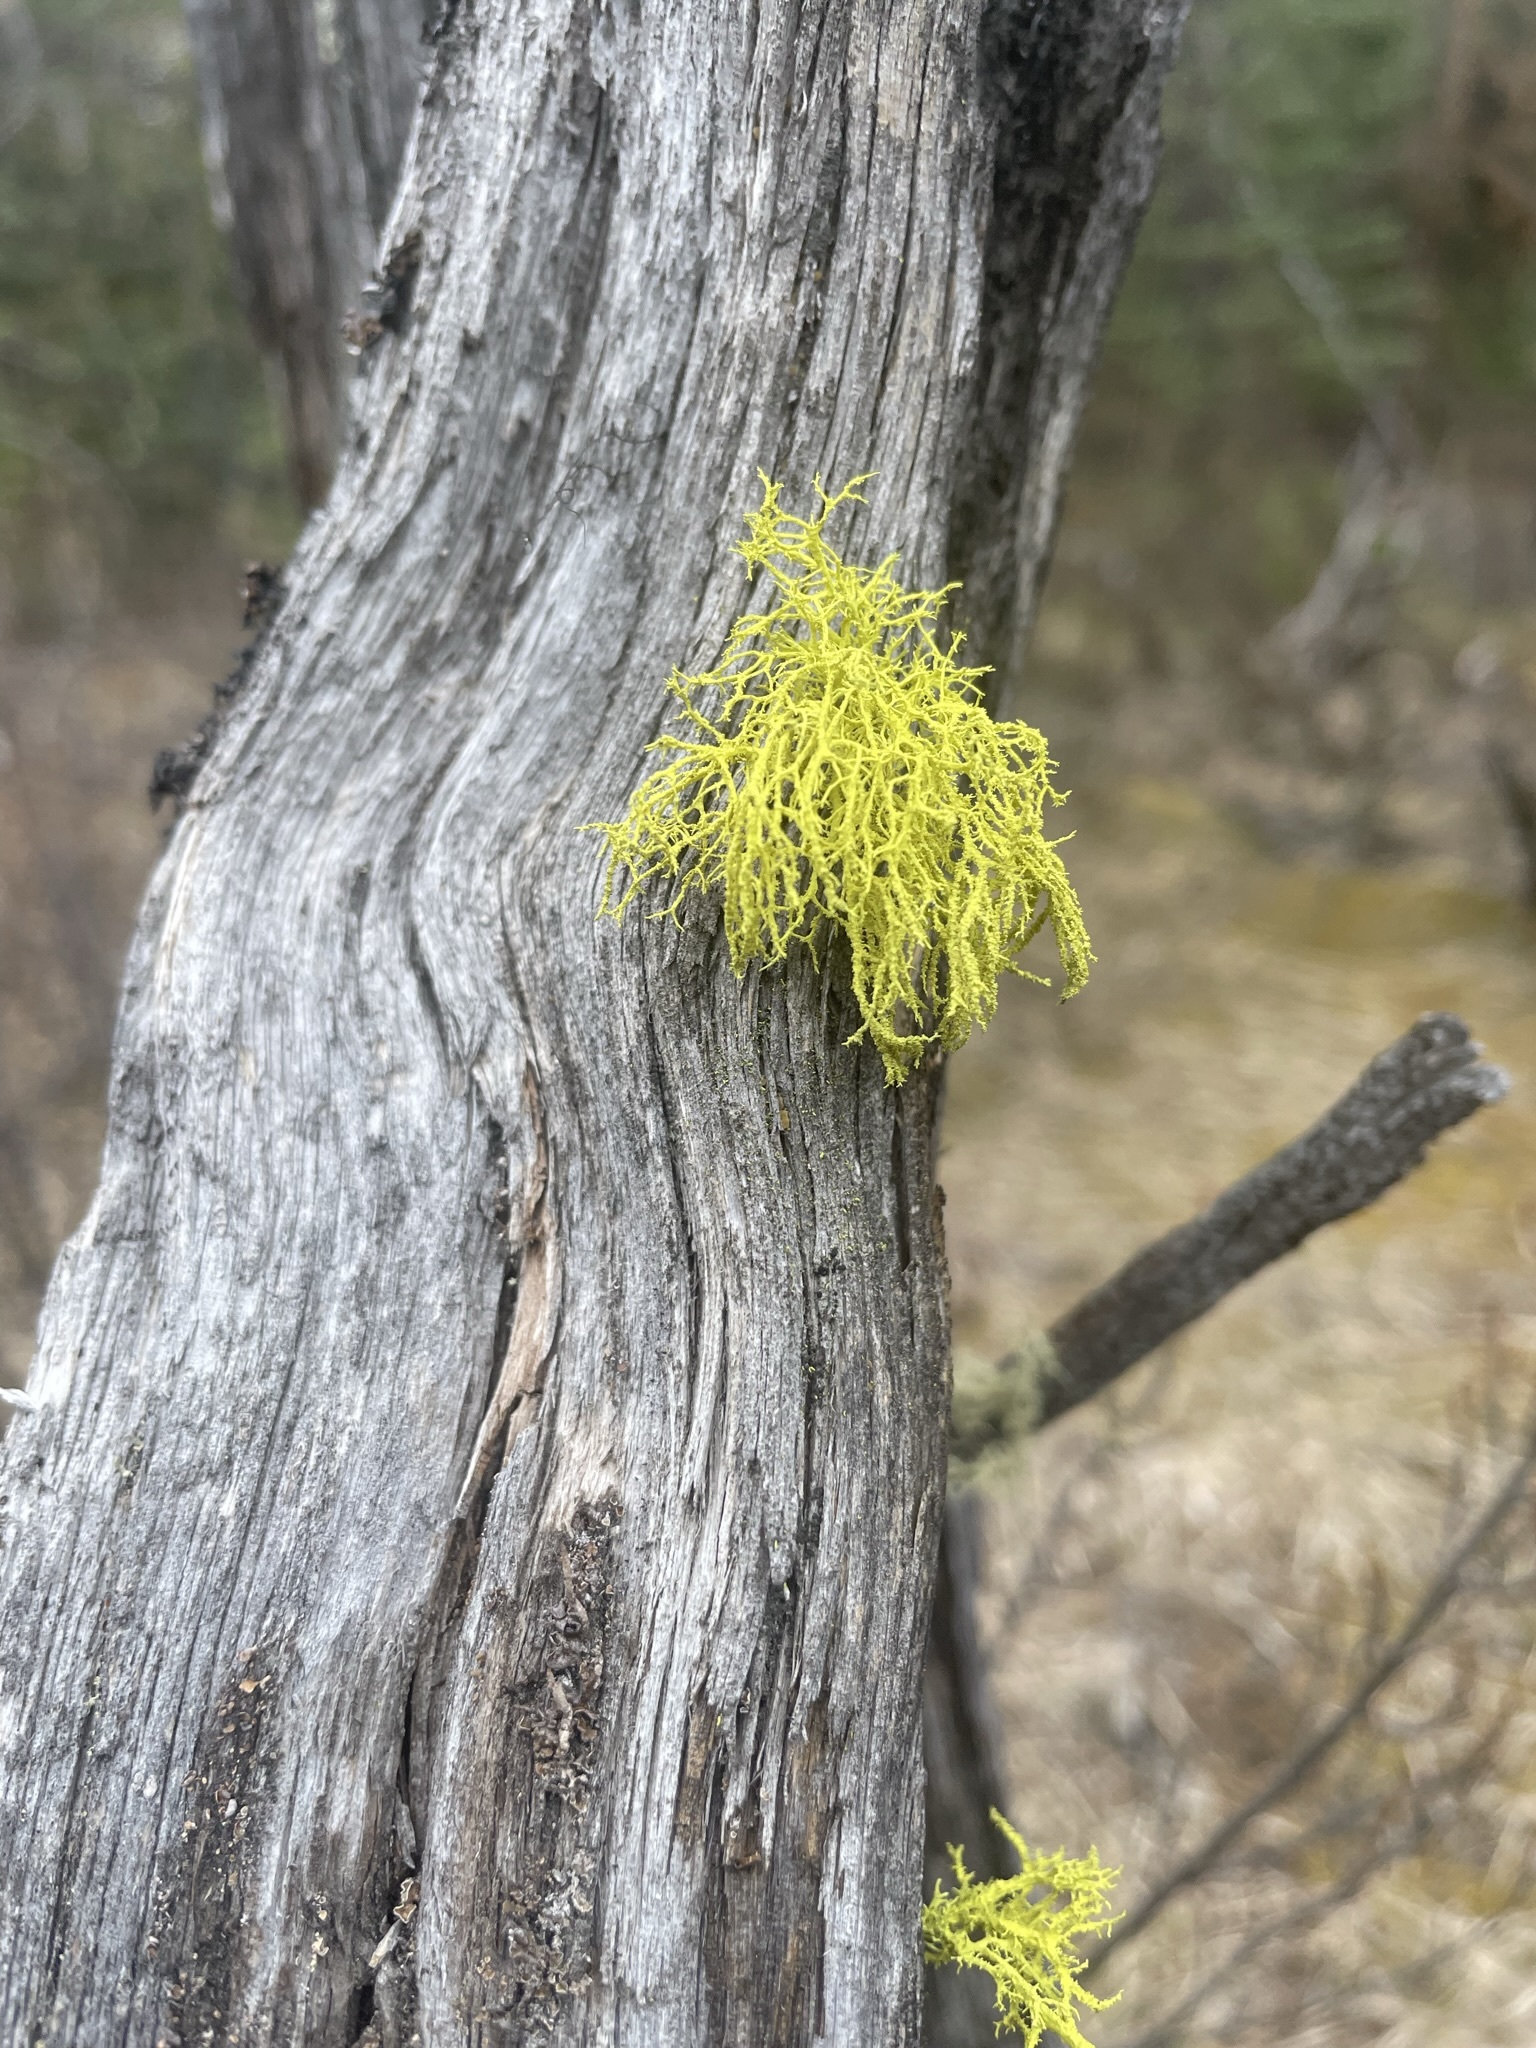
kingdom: Fungi
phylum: Ascomycota
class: Lecanoromycetes
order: Lecanorales
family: Parmeliaceae
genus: Letharia
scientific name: Letharia vulpina
